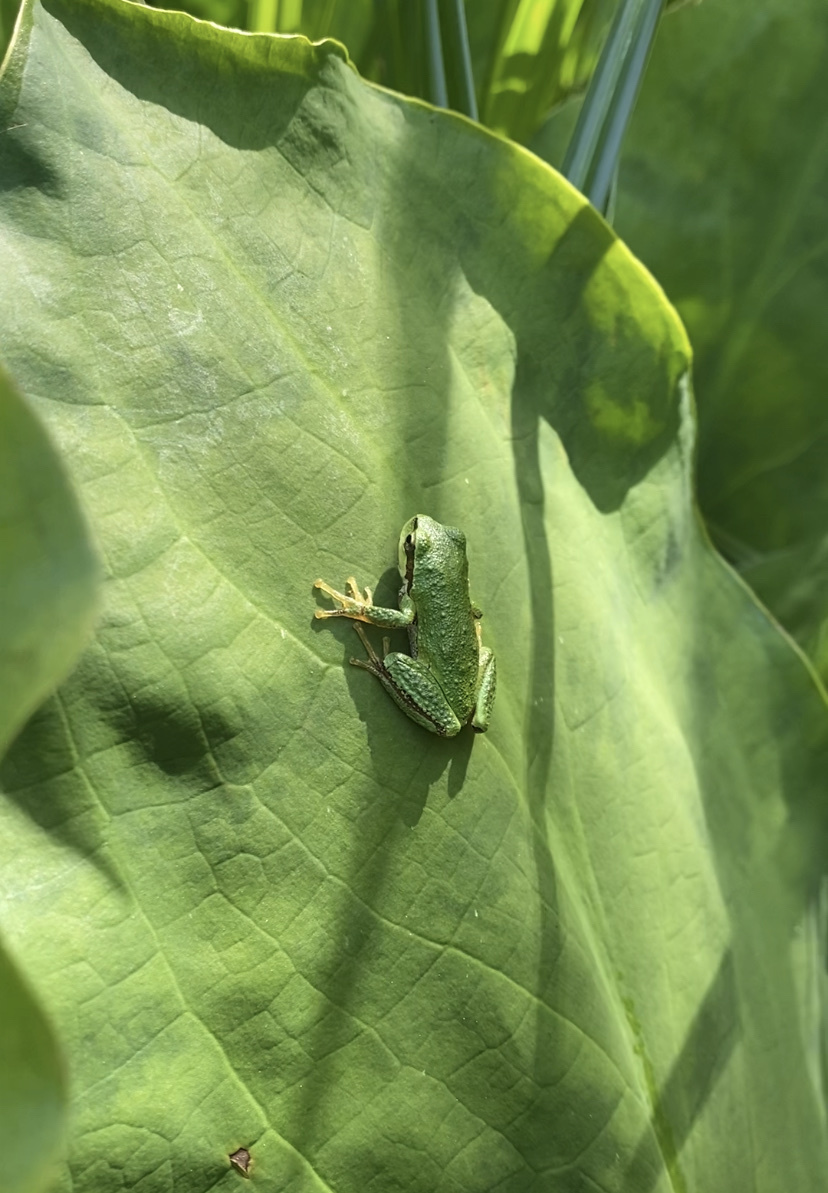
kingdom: Animalia
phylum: Chordata
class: Amphibia
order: Anura
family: Hylidae
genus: Pseudacris
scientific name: Pseudacris regilla
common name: Pacific chorus frog
